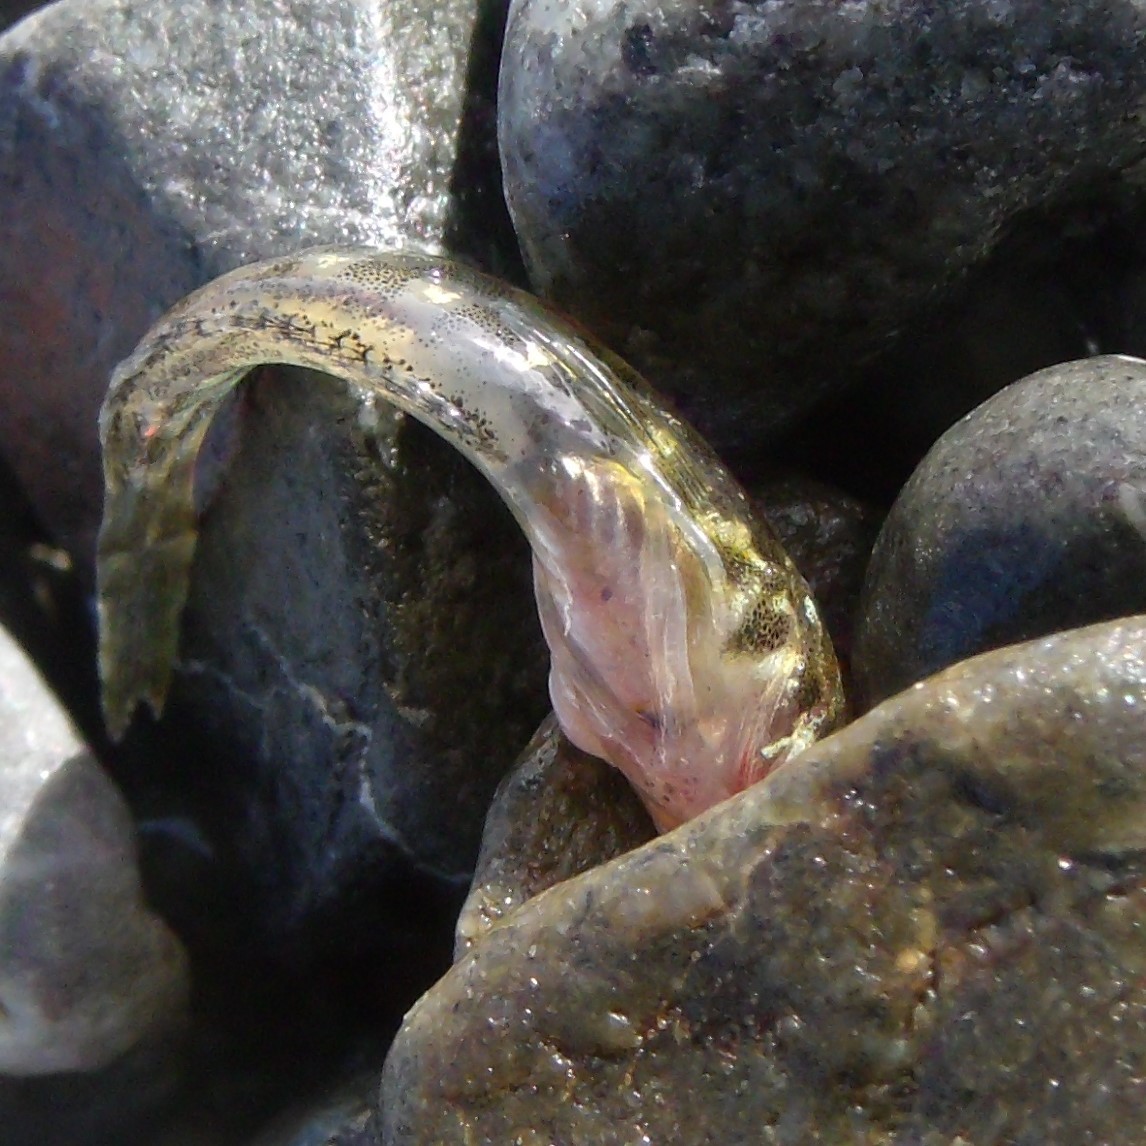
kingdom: Animalia
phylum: Chordata
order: Perciformes
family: Tripterygiidae
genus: Bellapiscis
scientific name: Bellapiscis medius
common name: Twister
